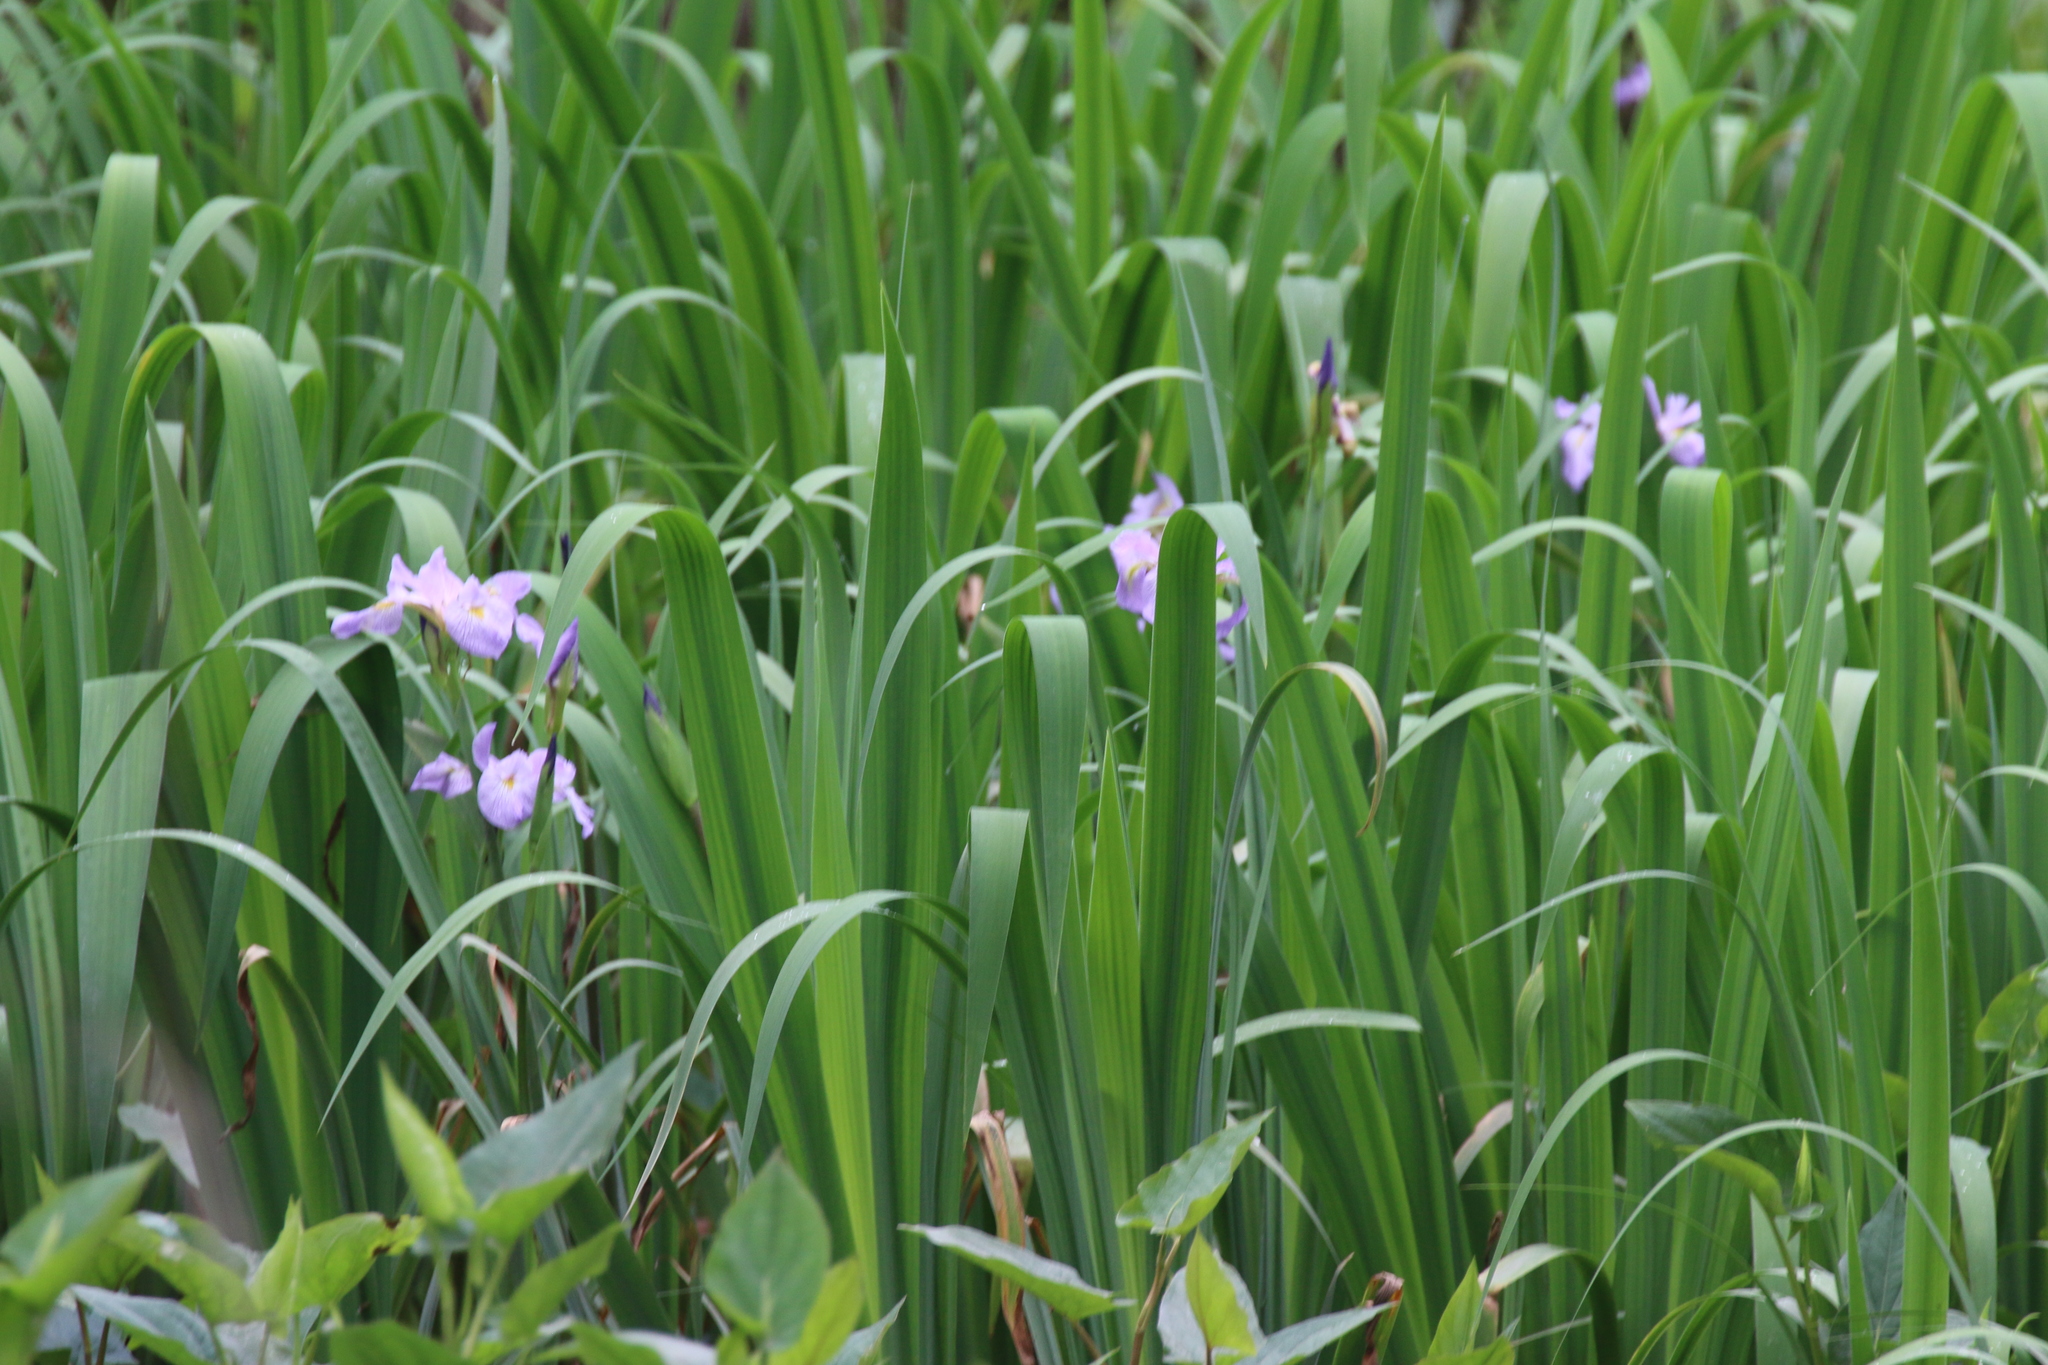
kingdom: Plantae
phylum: Tracheophyta
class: Liliopsida
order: Asparagales
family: Iridaceae
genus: Iris
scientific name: Iris virginica
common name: Southern blue flag
